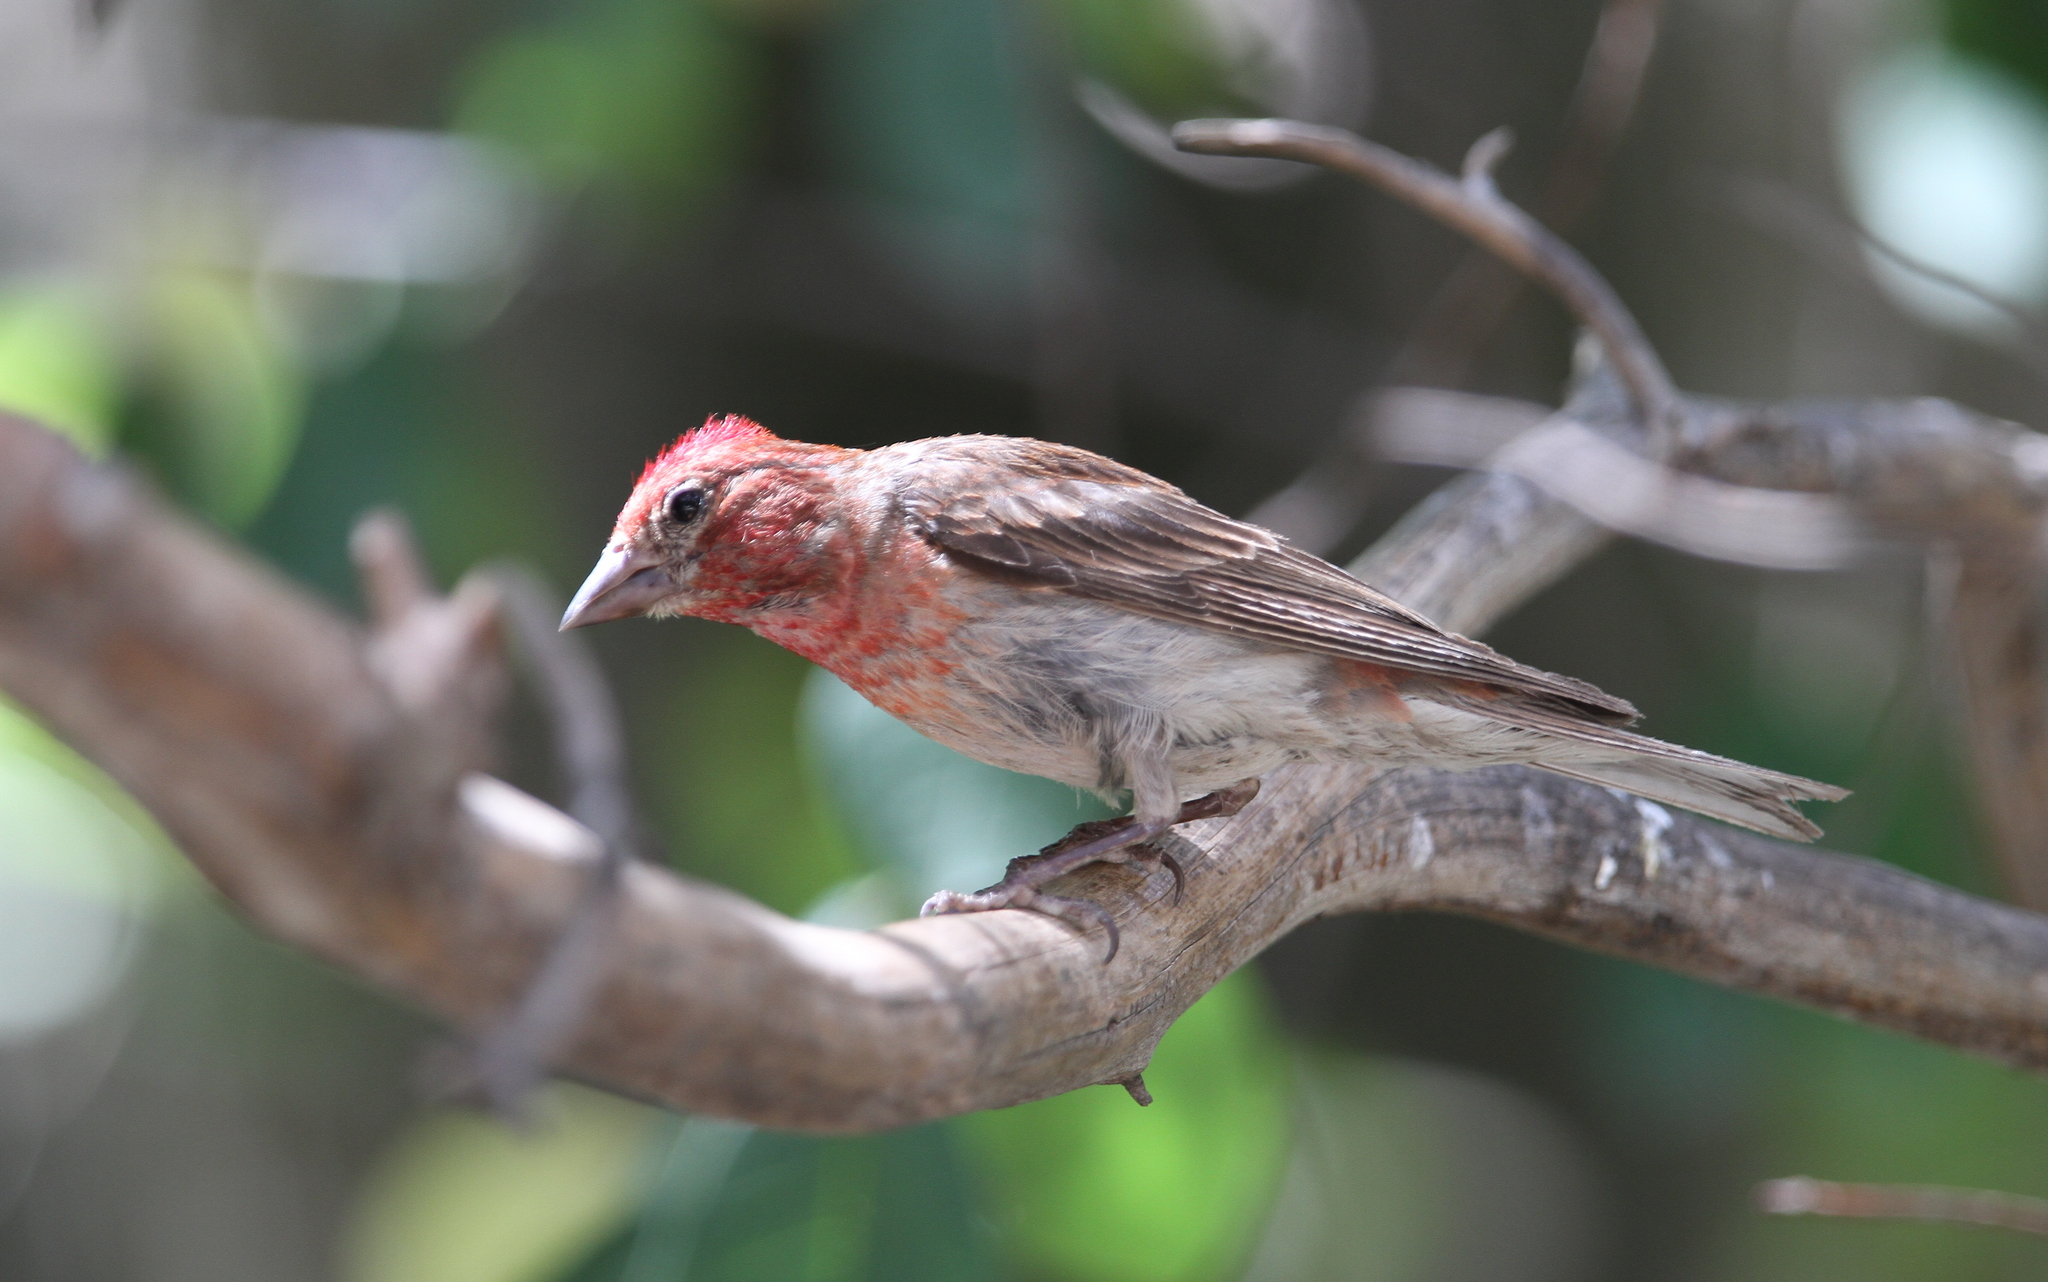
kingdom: Animalia
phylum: Chordata
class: Aves
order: Passeriformes
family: Fringillidae
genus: Haemorhous
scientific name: Haemorhous cassinii
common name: Cassin's finch
